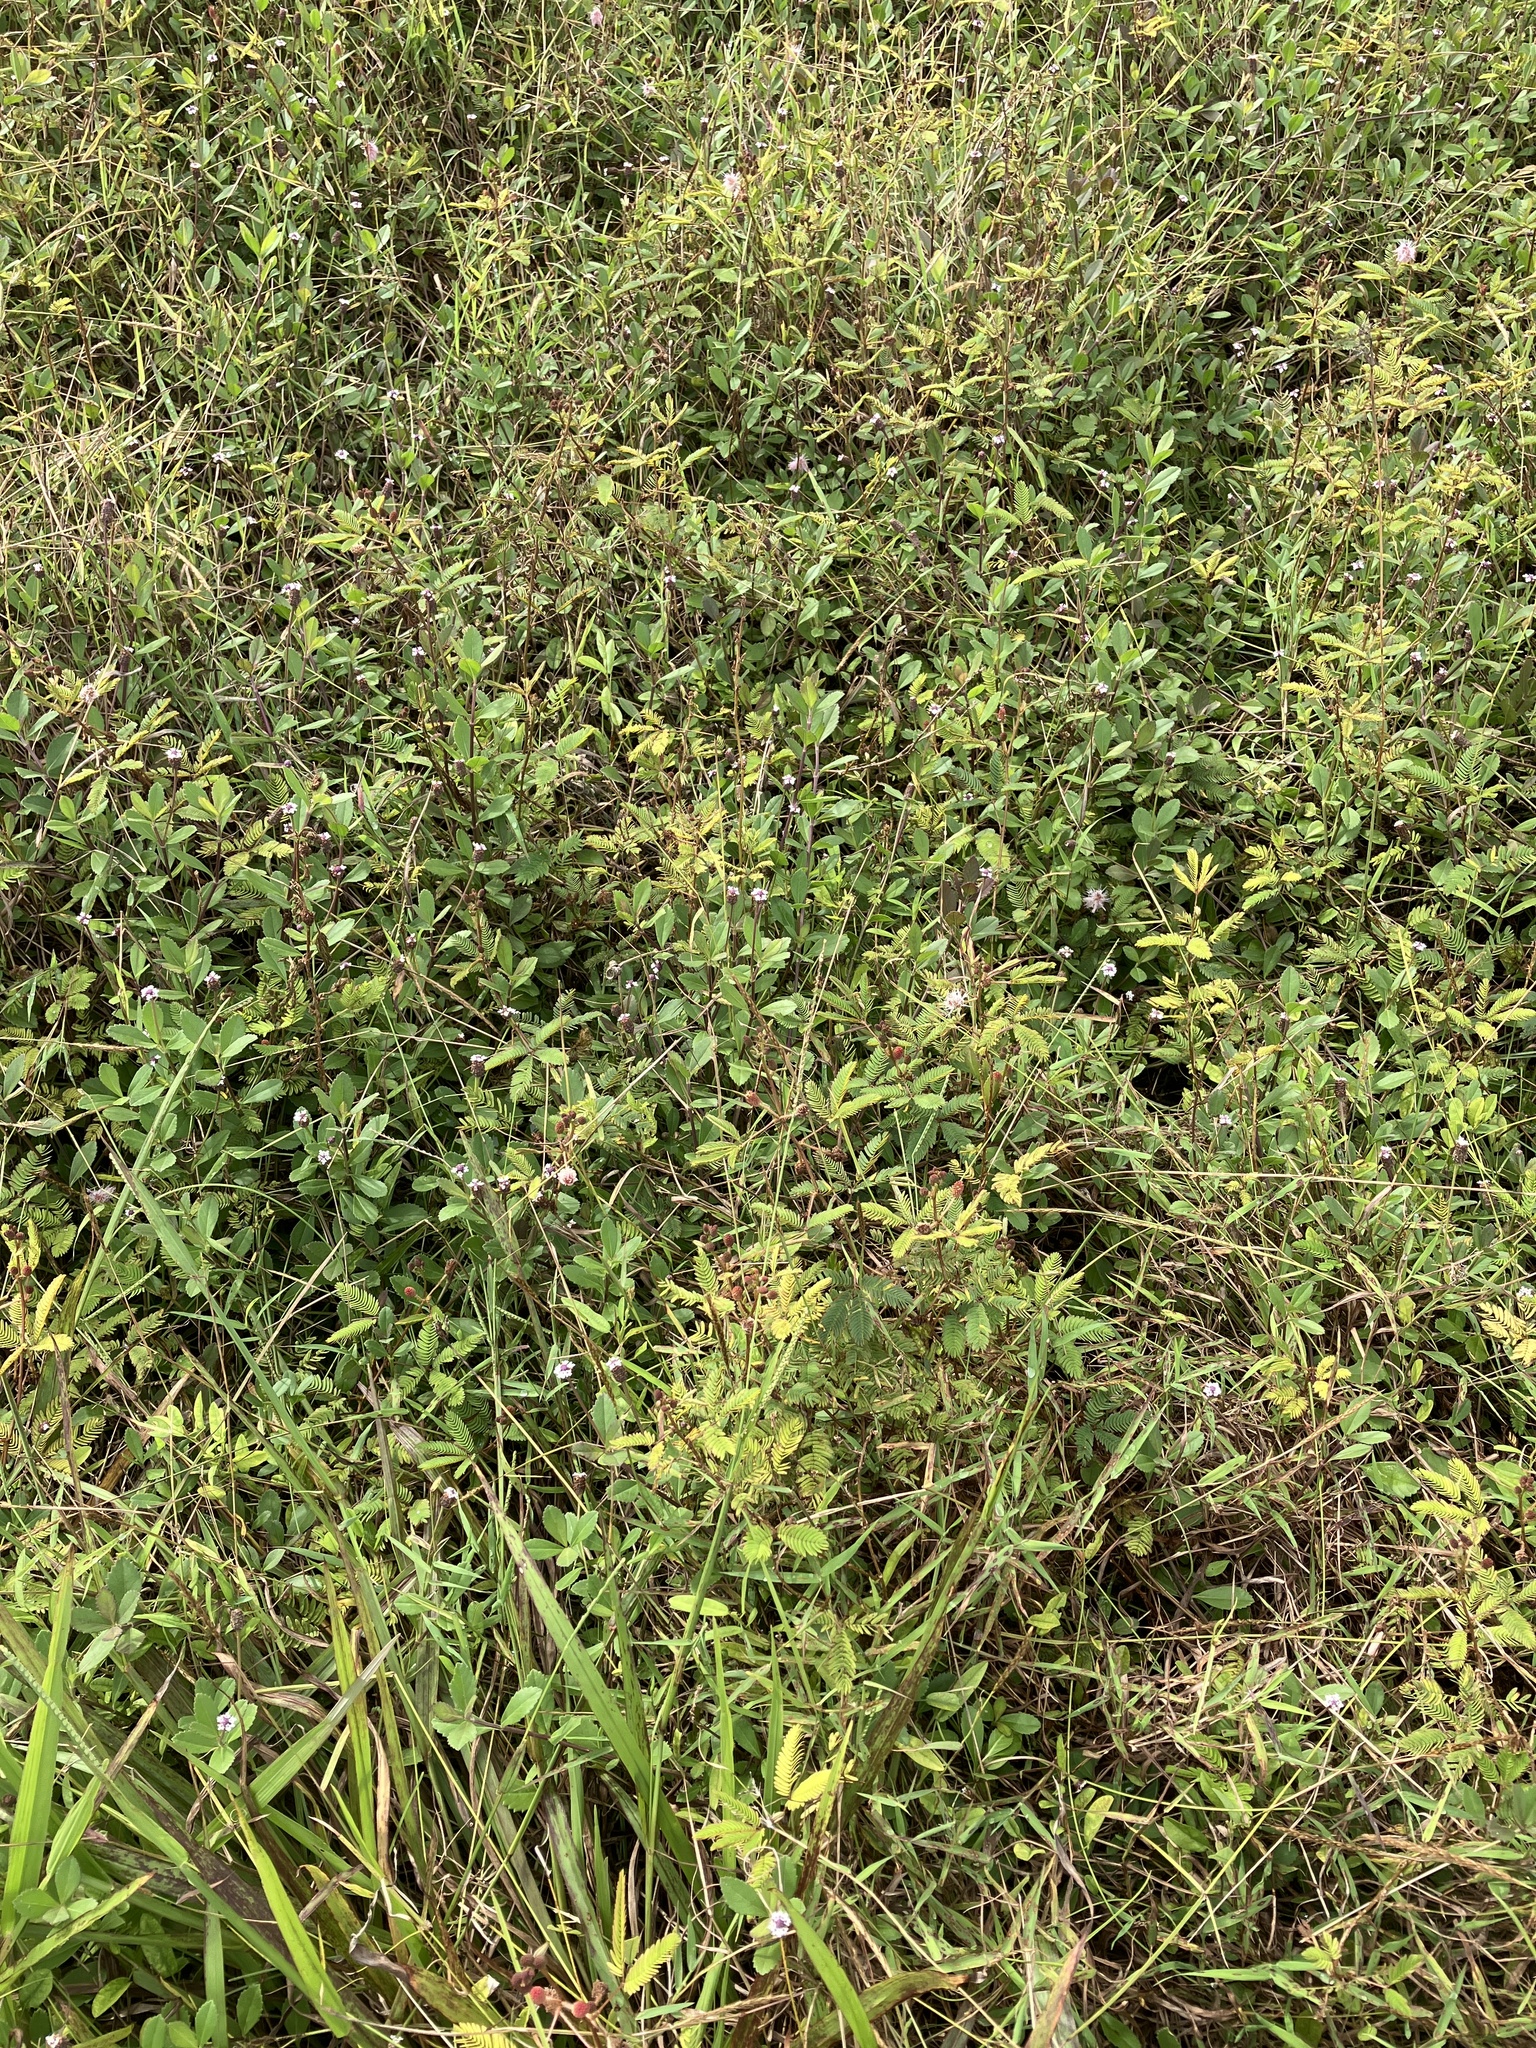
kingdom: Plantae
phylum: Tracheophyta
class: Magnoliopsida
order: Fabales
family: Fabaceae
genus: Mimosa
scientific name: Mimosa pudica
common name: Sensitive plant
